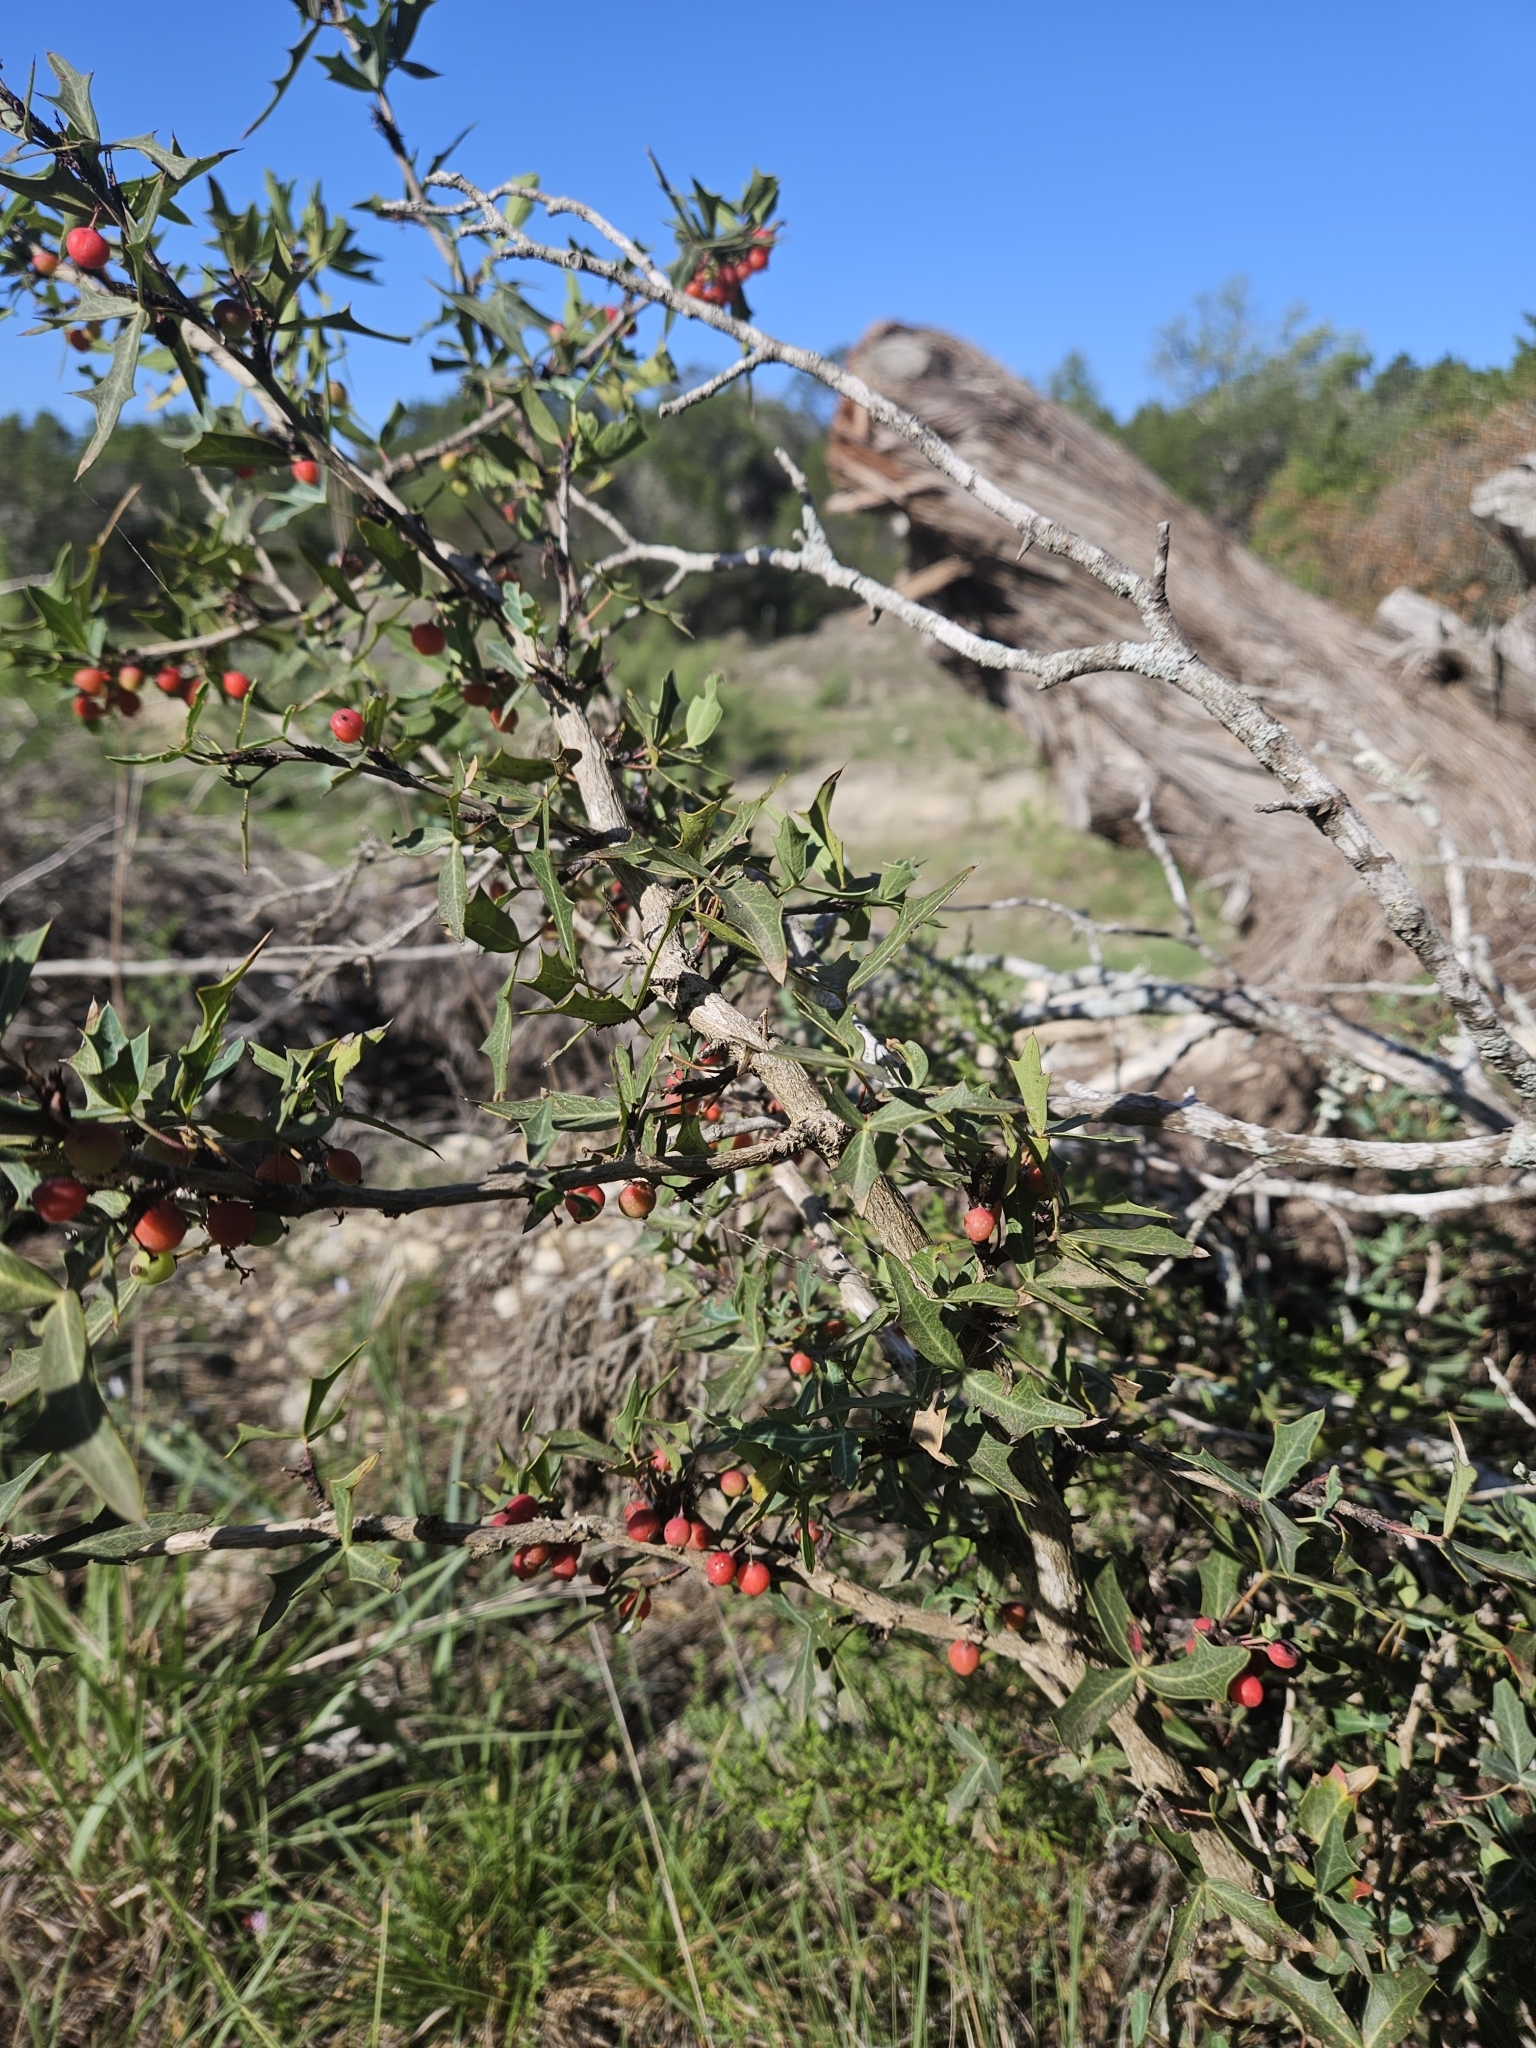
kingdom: Plantae
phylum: Tracheophyta
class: Magnoliopsida
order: Ranunculales
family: Berberidaceae
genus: Alloberberis
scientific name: Alloberberis trifoliolata
